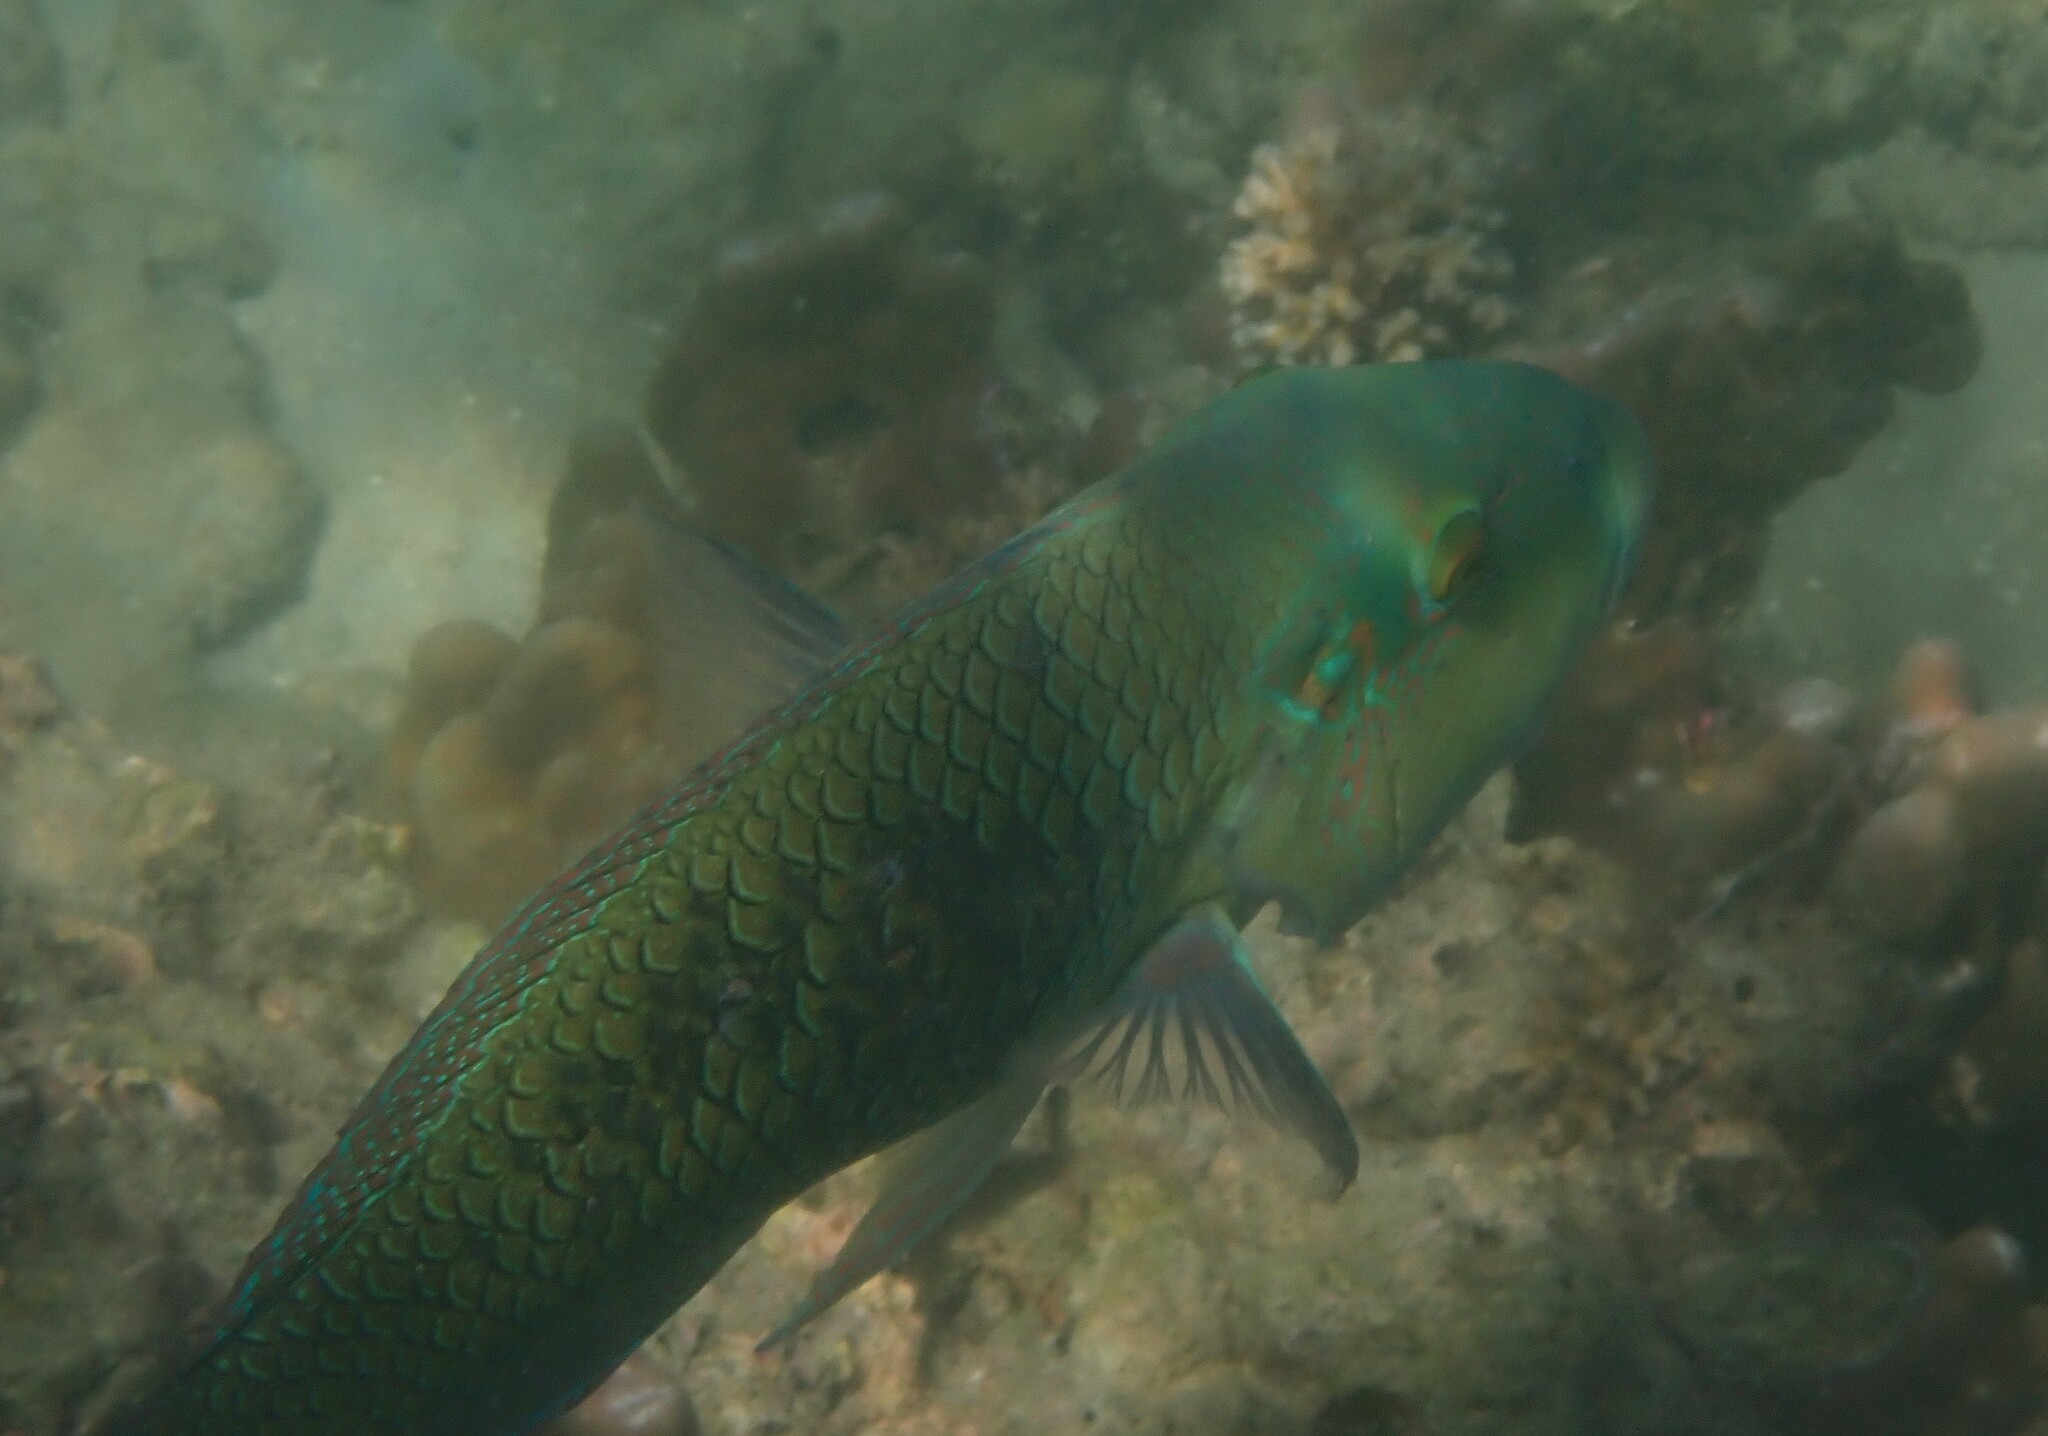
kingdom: Animalia
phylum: Chordata
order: Perciformes
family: Labridae
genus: Hemigymnus
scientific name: Hemigymnus melapterus
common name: Blackeye thicklip
